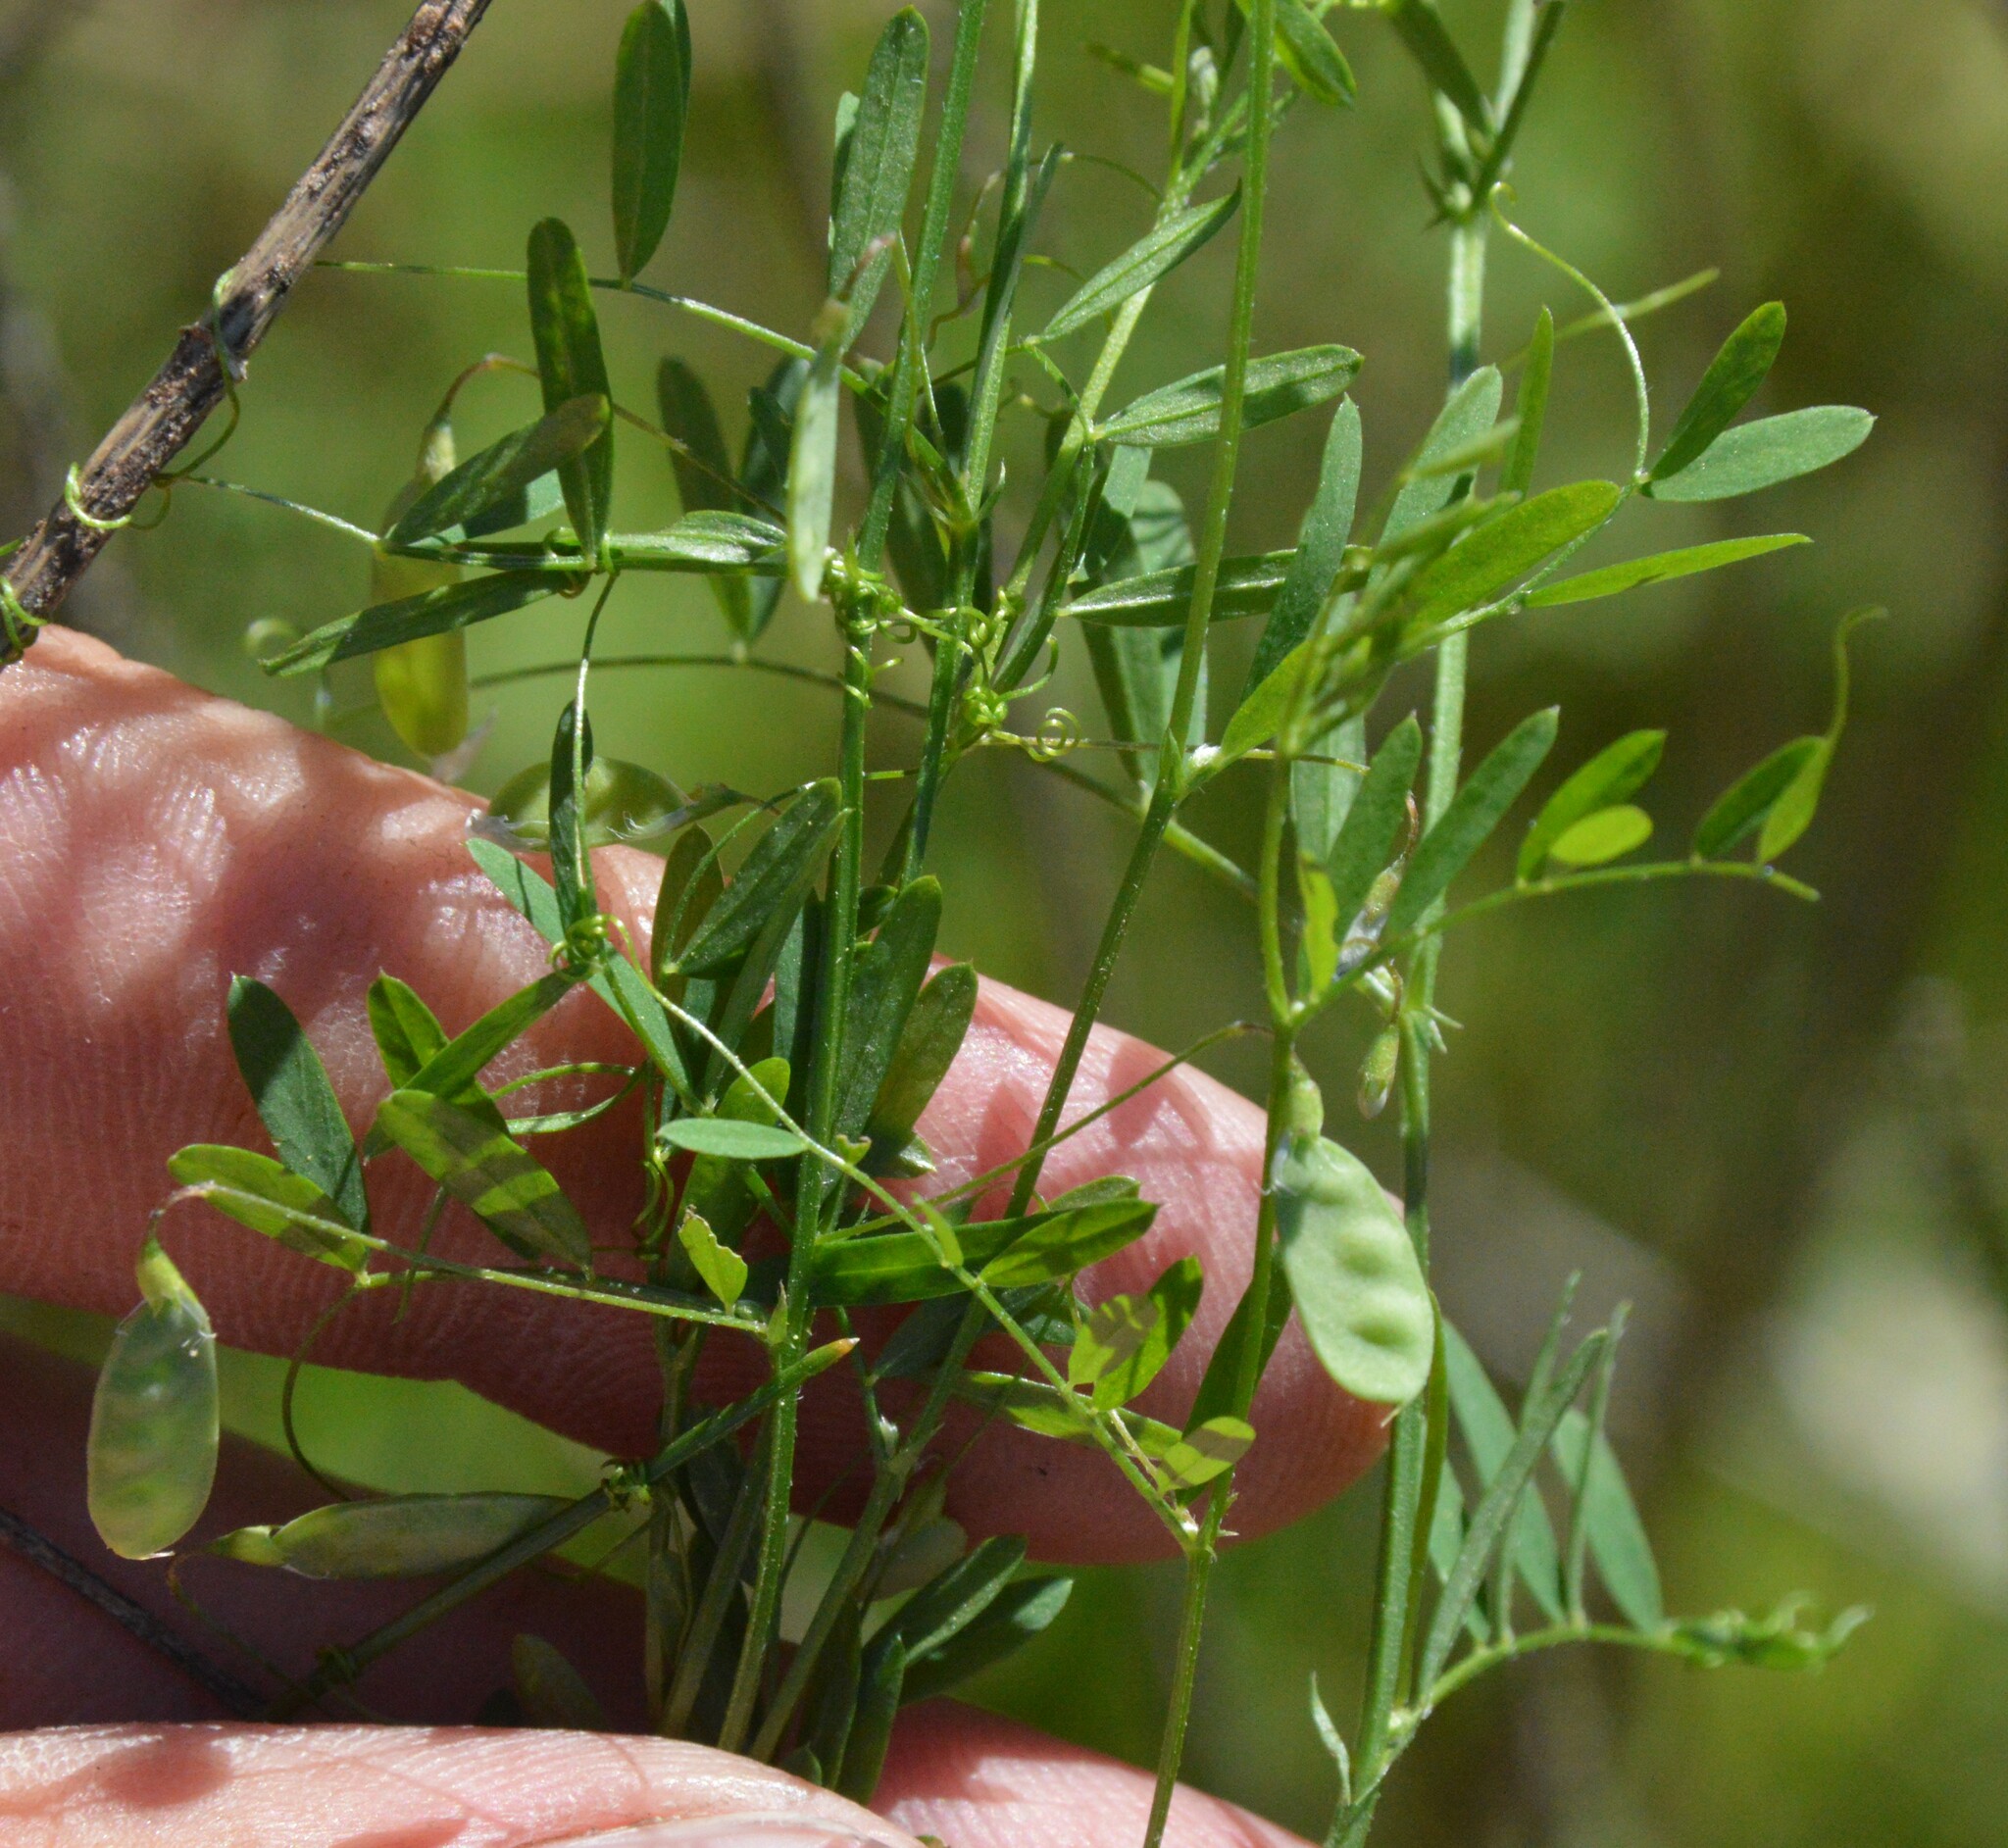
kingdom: Plantae
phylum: Tracheophyta
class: Magnoliopsida
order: Fabales
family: Fabaceae
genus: Vicia
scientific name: Vicia tetrasperma
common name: Smooth tare
